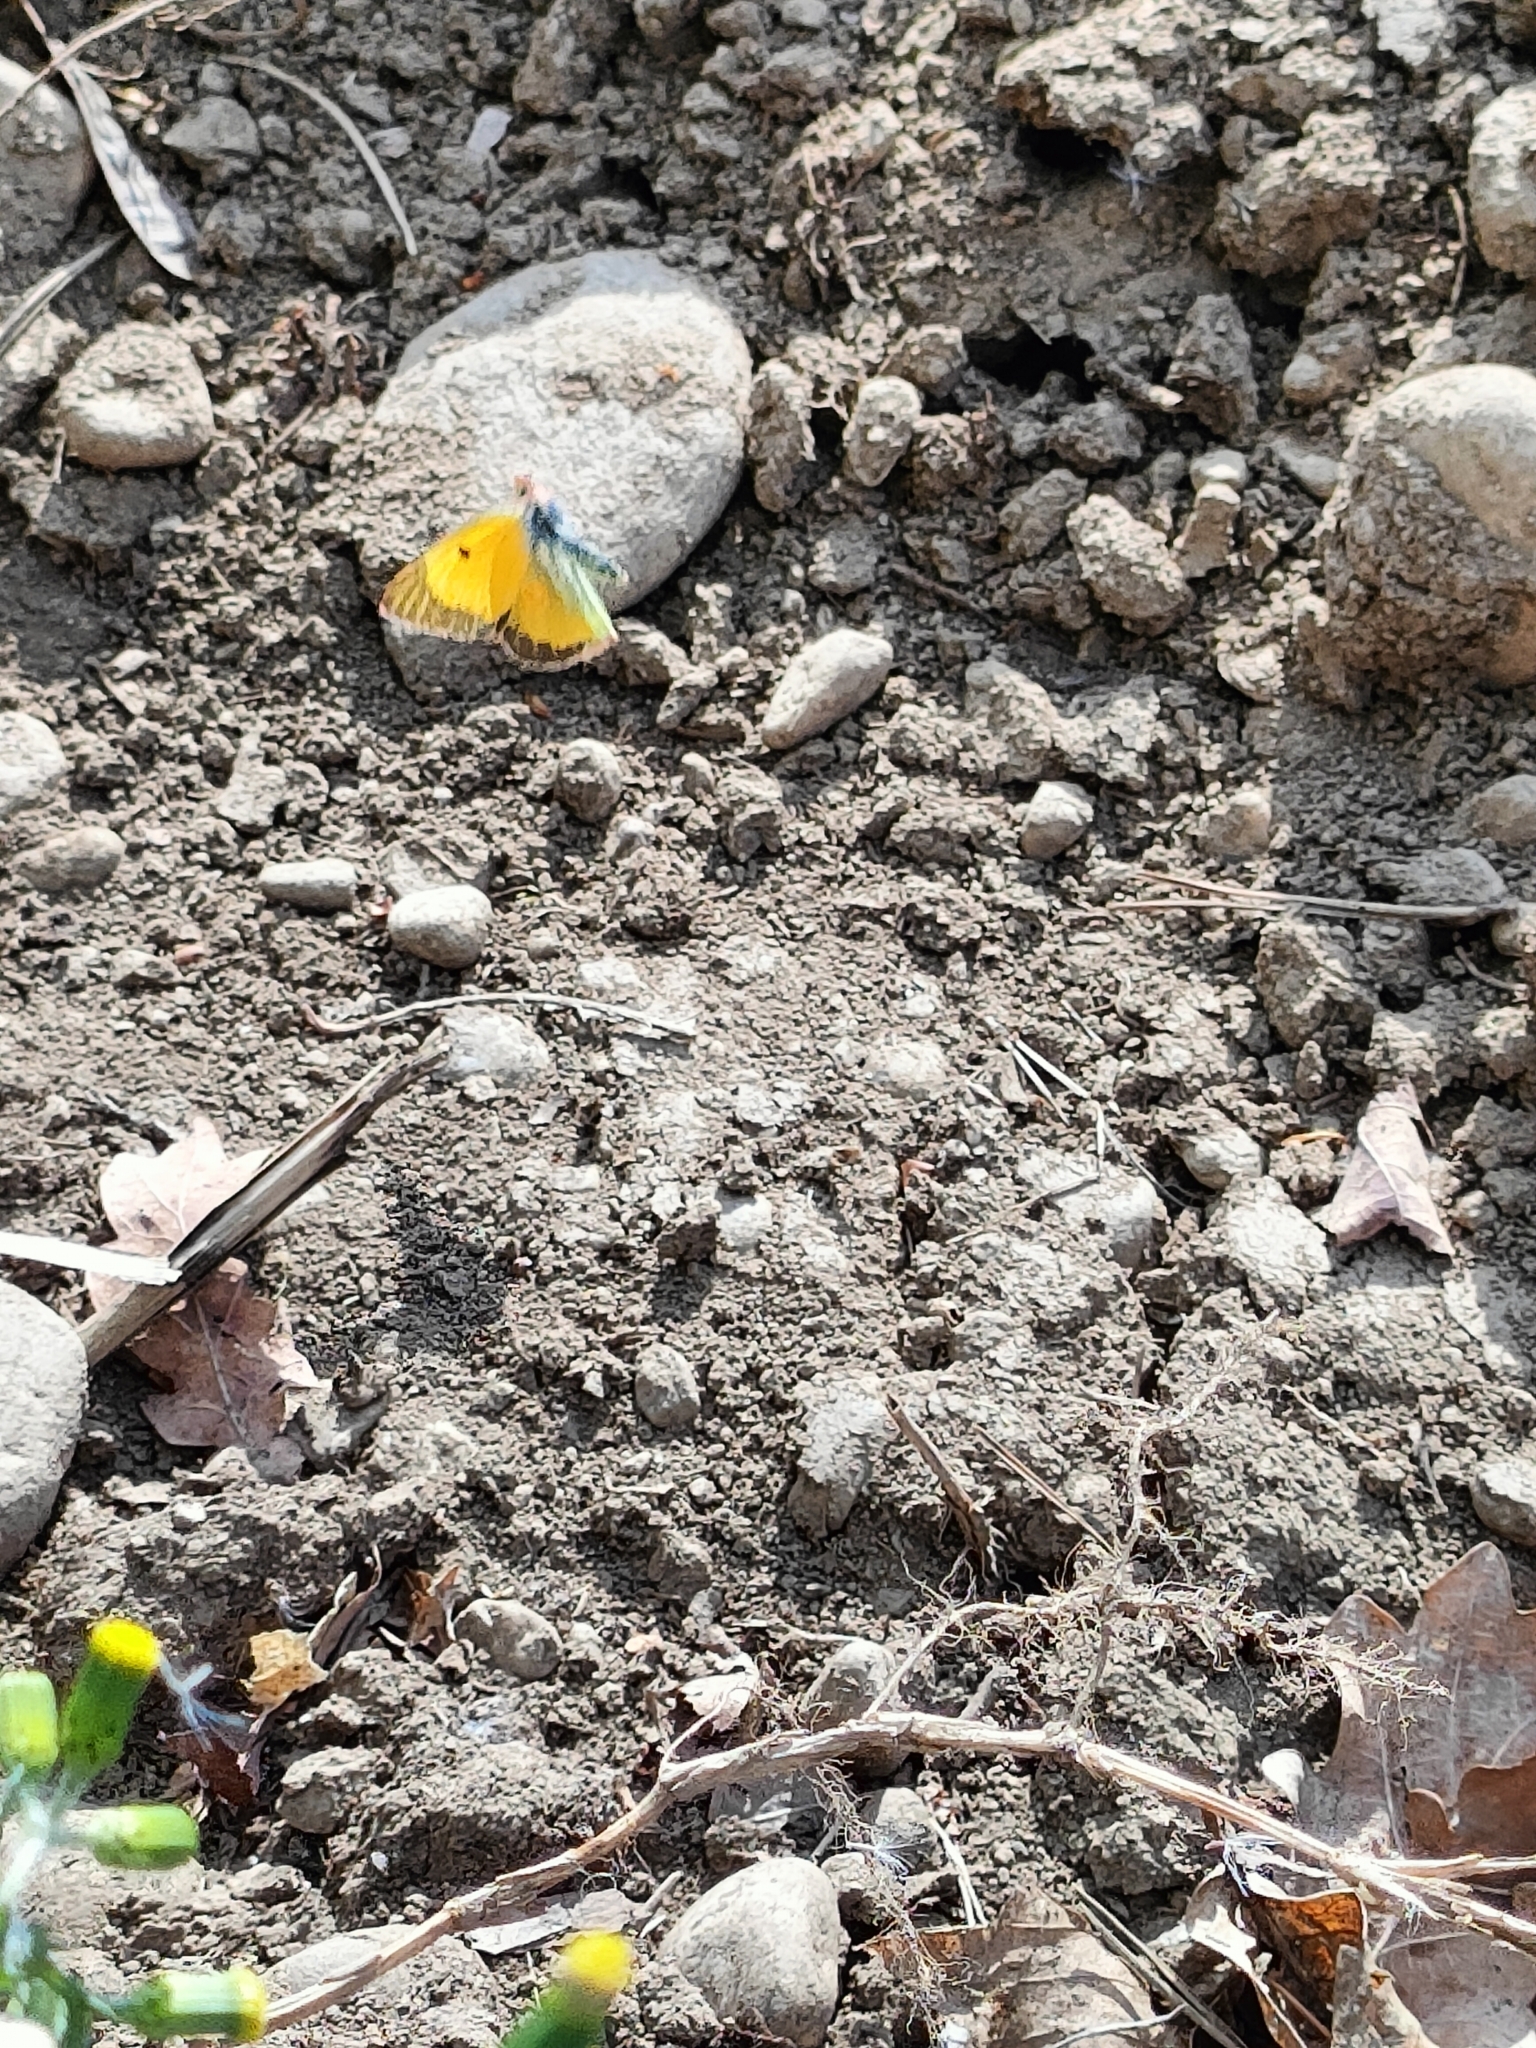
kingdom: Animalia
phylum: Arthropoda
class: Insecta
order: Lepidoptera
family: Pieridae
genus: Colias
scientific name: Colias croceus
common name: Clouded yellow
